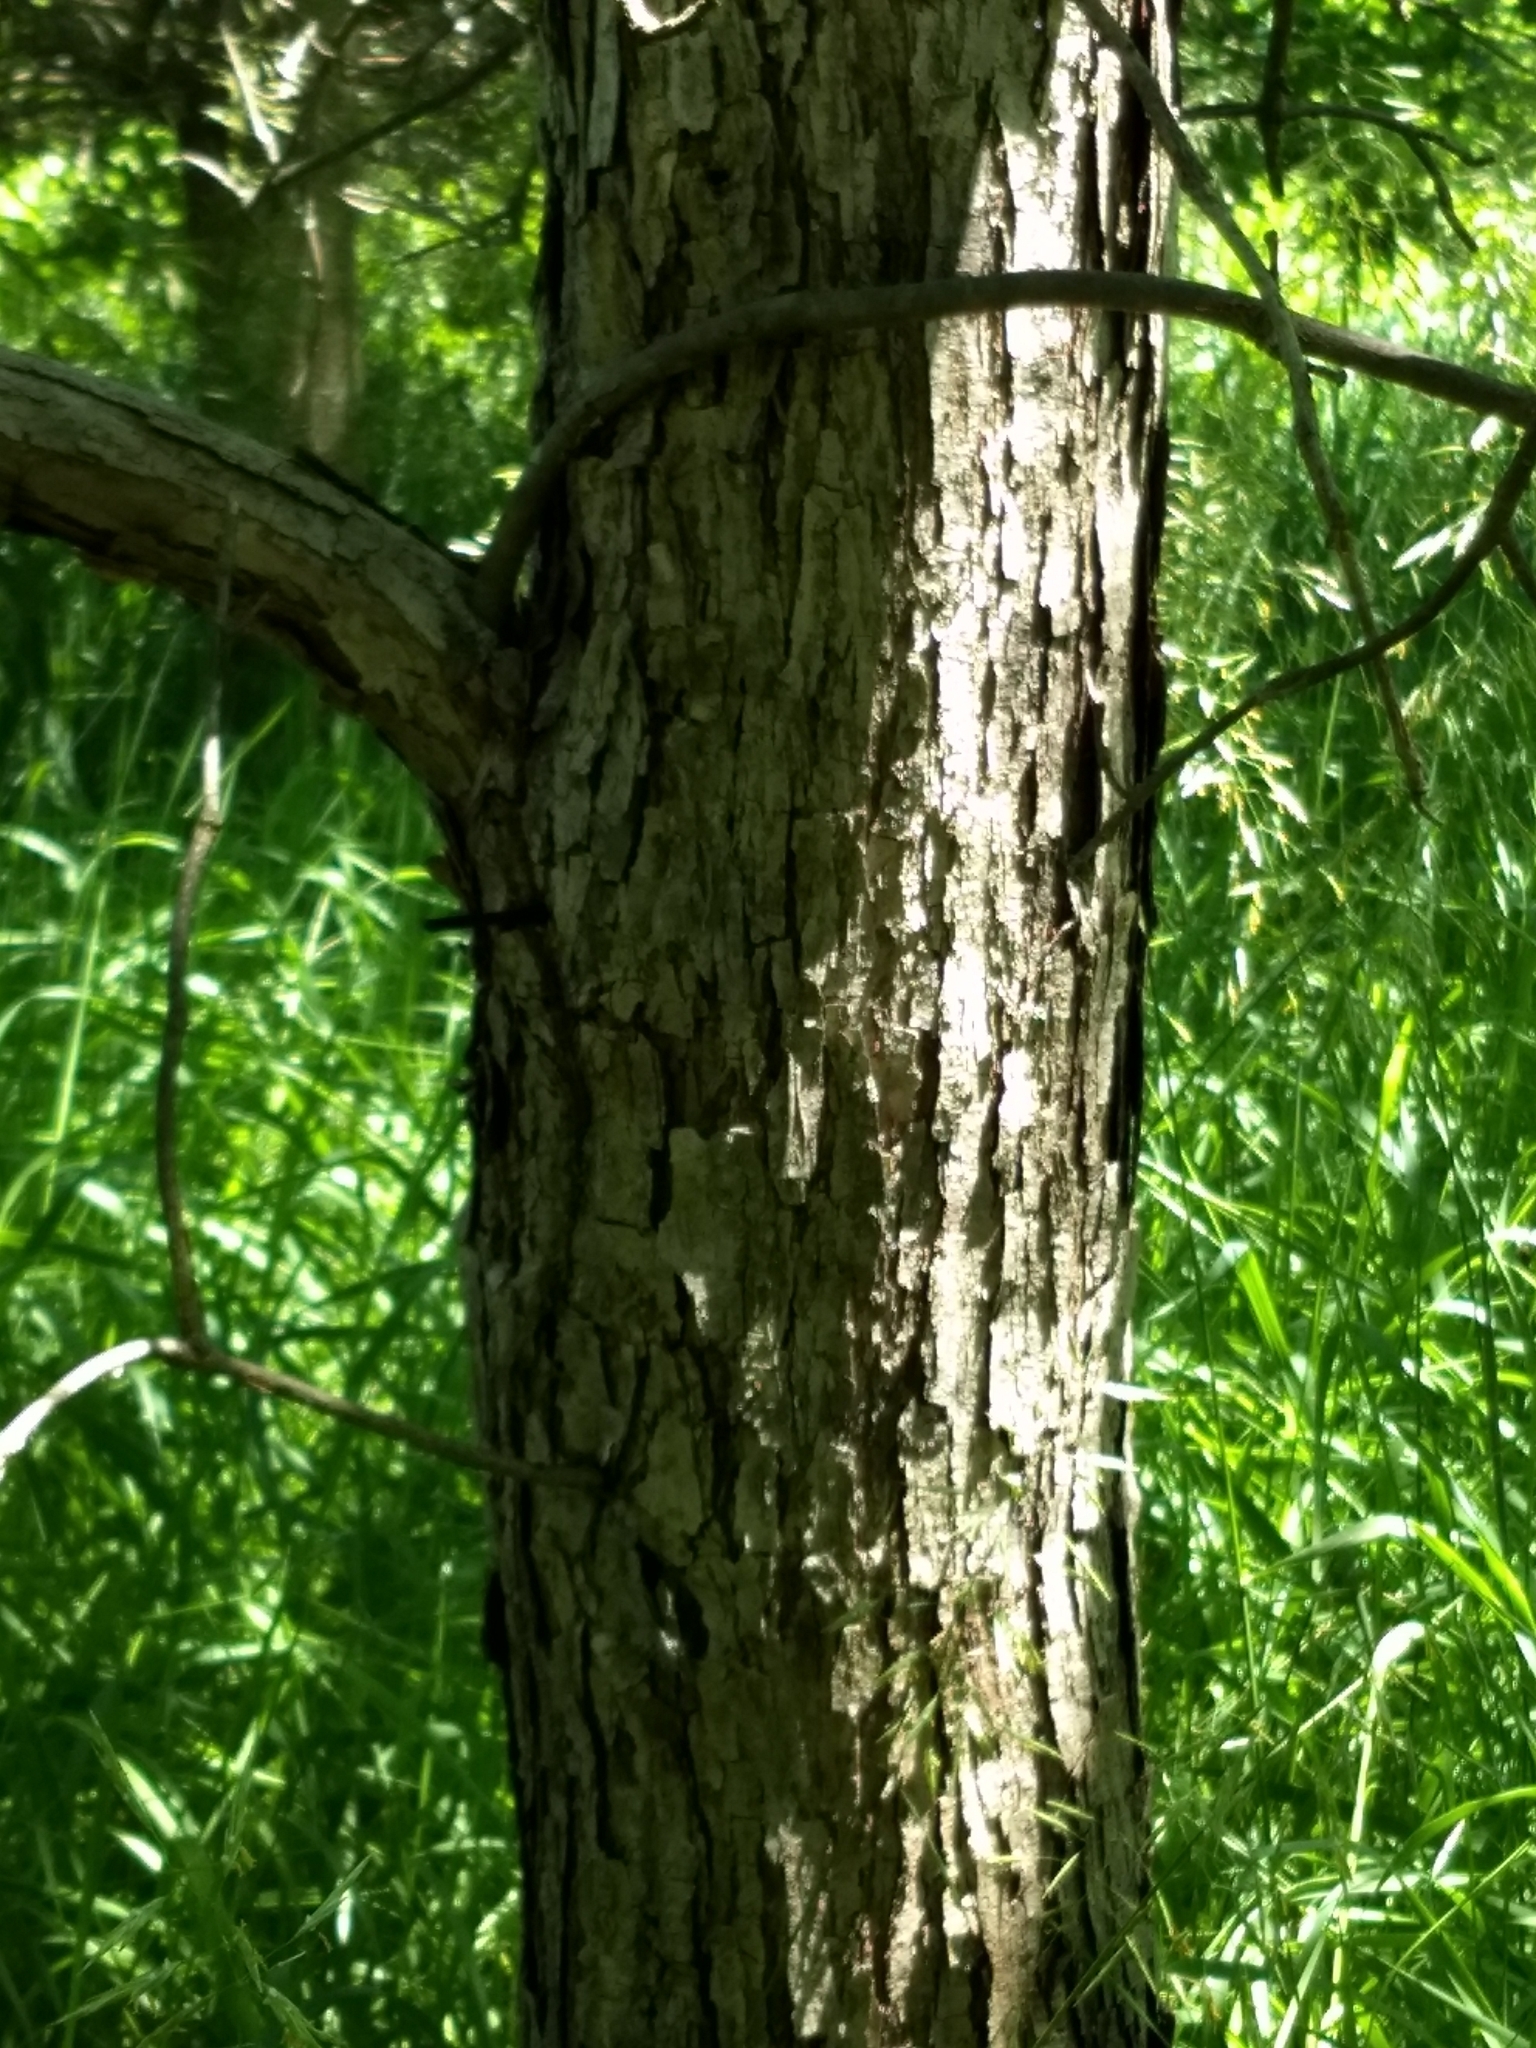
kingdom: Plantae
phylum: Tracheophyta
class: Magnoliopsida
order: Fagales
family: Fagaceae
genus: Quercus
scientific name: Quercus bicolor
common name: Swamp white oak
